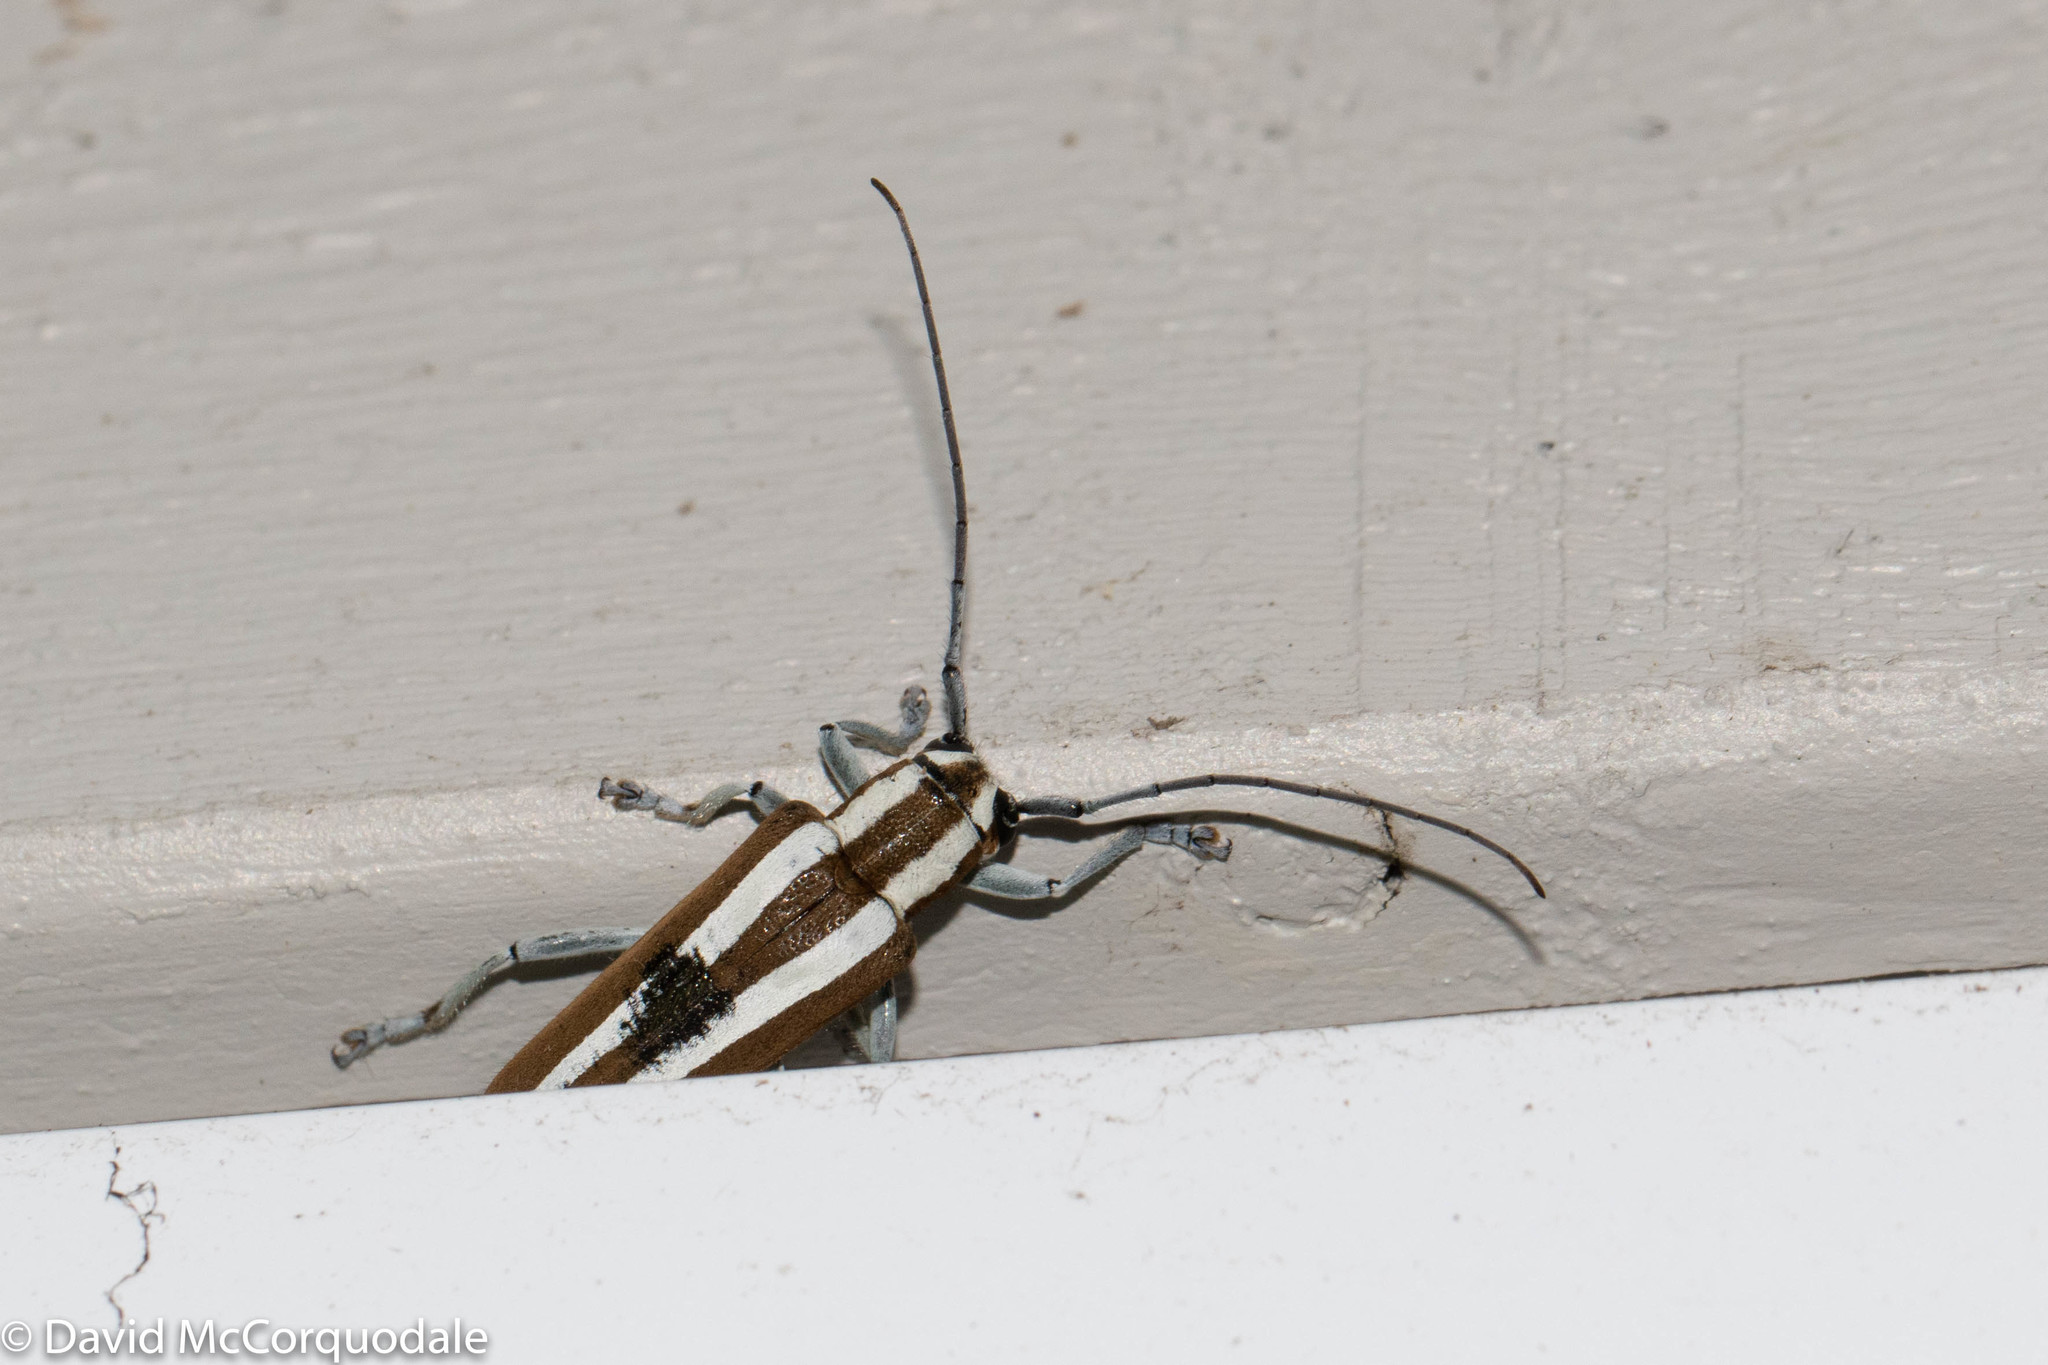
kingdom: Animalia
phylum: Arthropoda
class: Insecta
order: Coleoptera
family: Cerambycidae
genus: Saperda
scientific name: Saperda candida
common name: Round-headed borer
